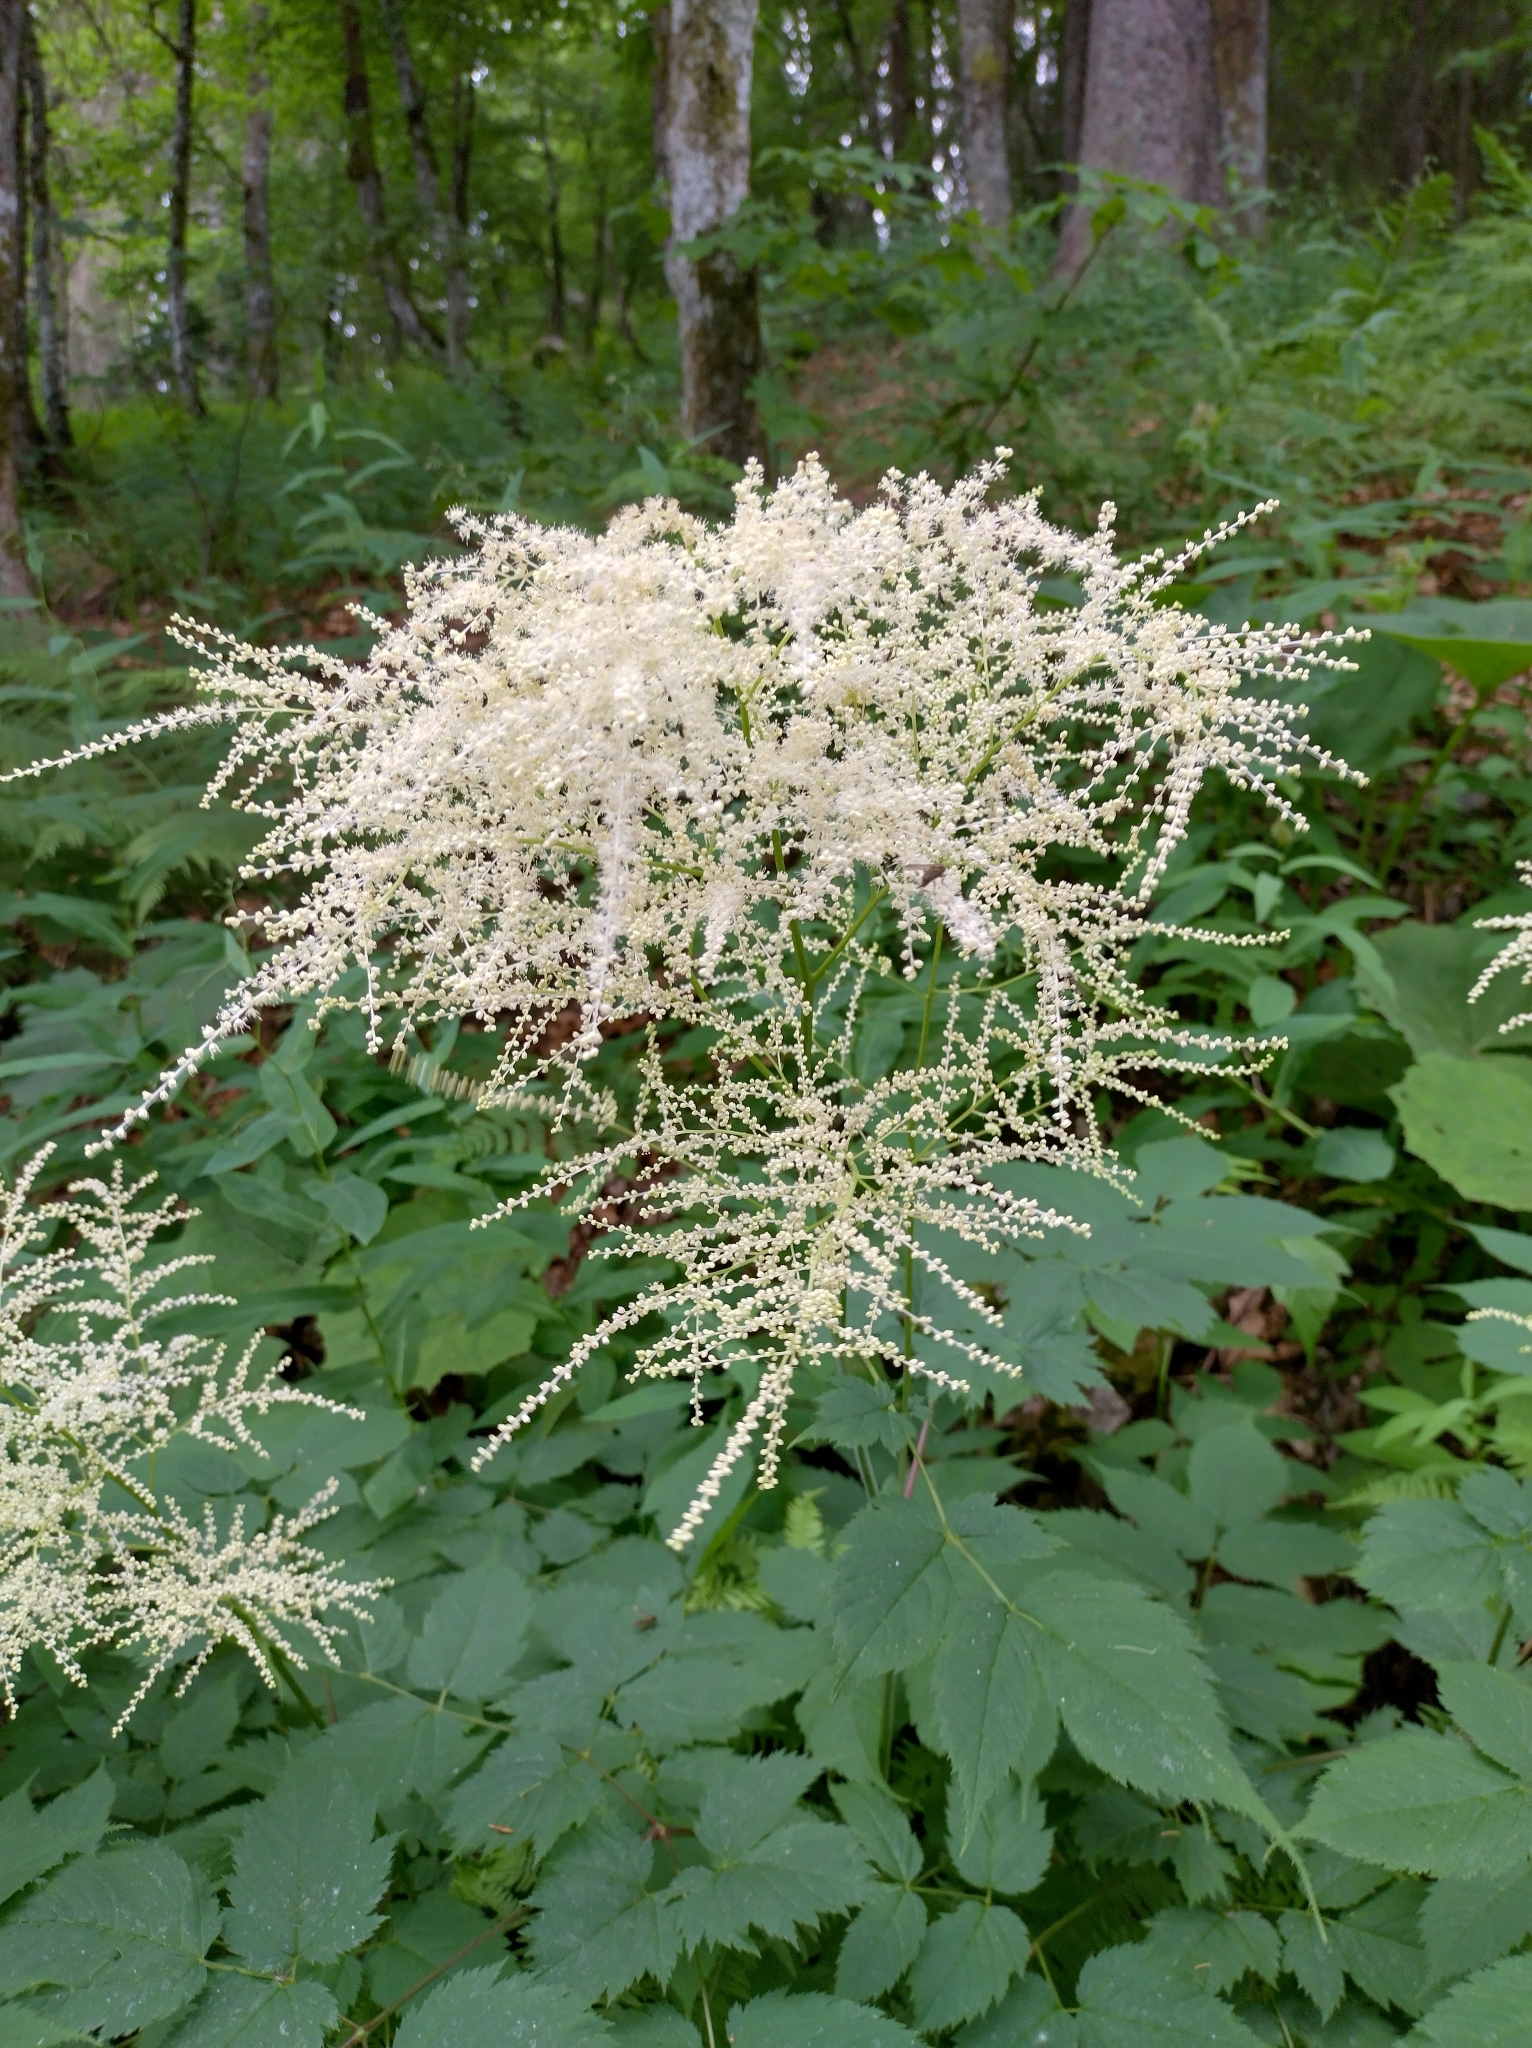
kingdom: Plantae
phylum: Tracheophyta
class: Magnoliopsida
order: Rosales
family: Rosaceae
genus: Aruncus
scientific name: Aruncus dioicus
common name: Buck's-beard
